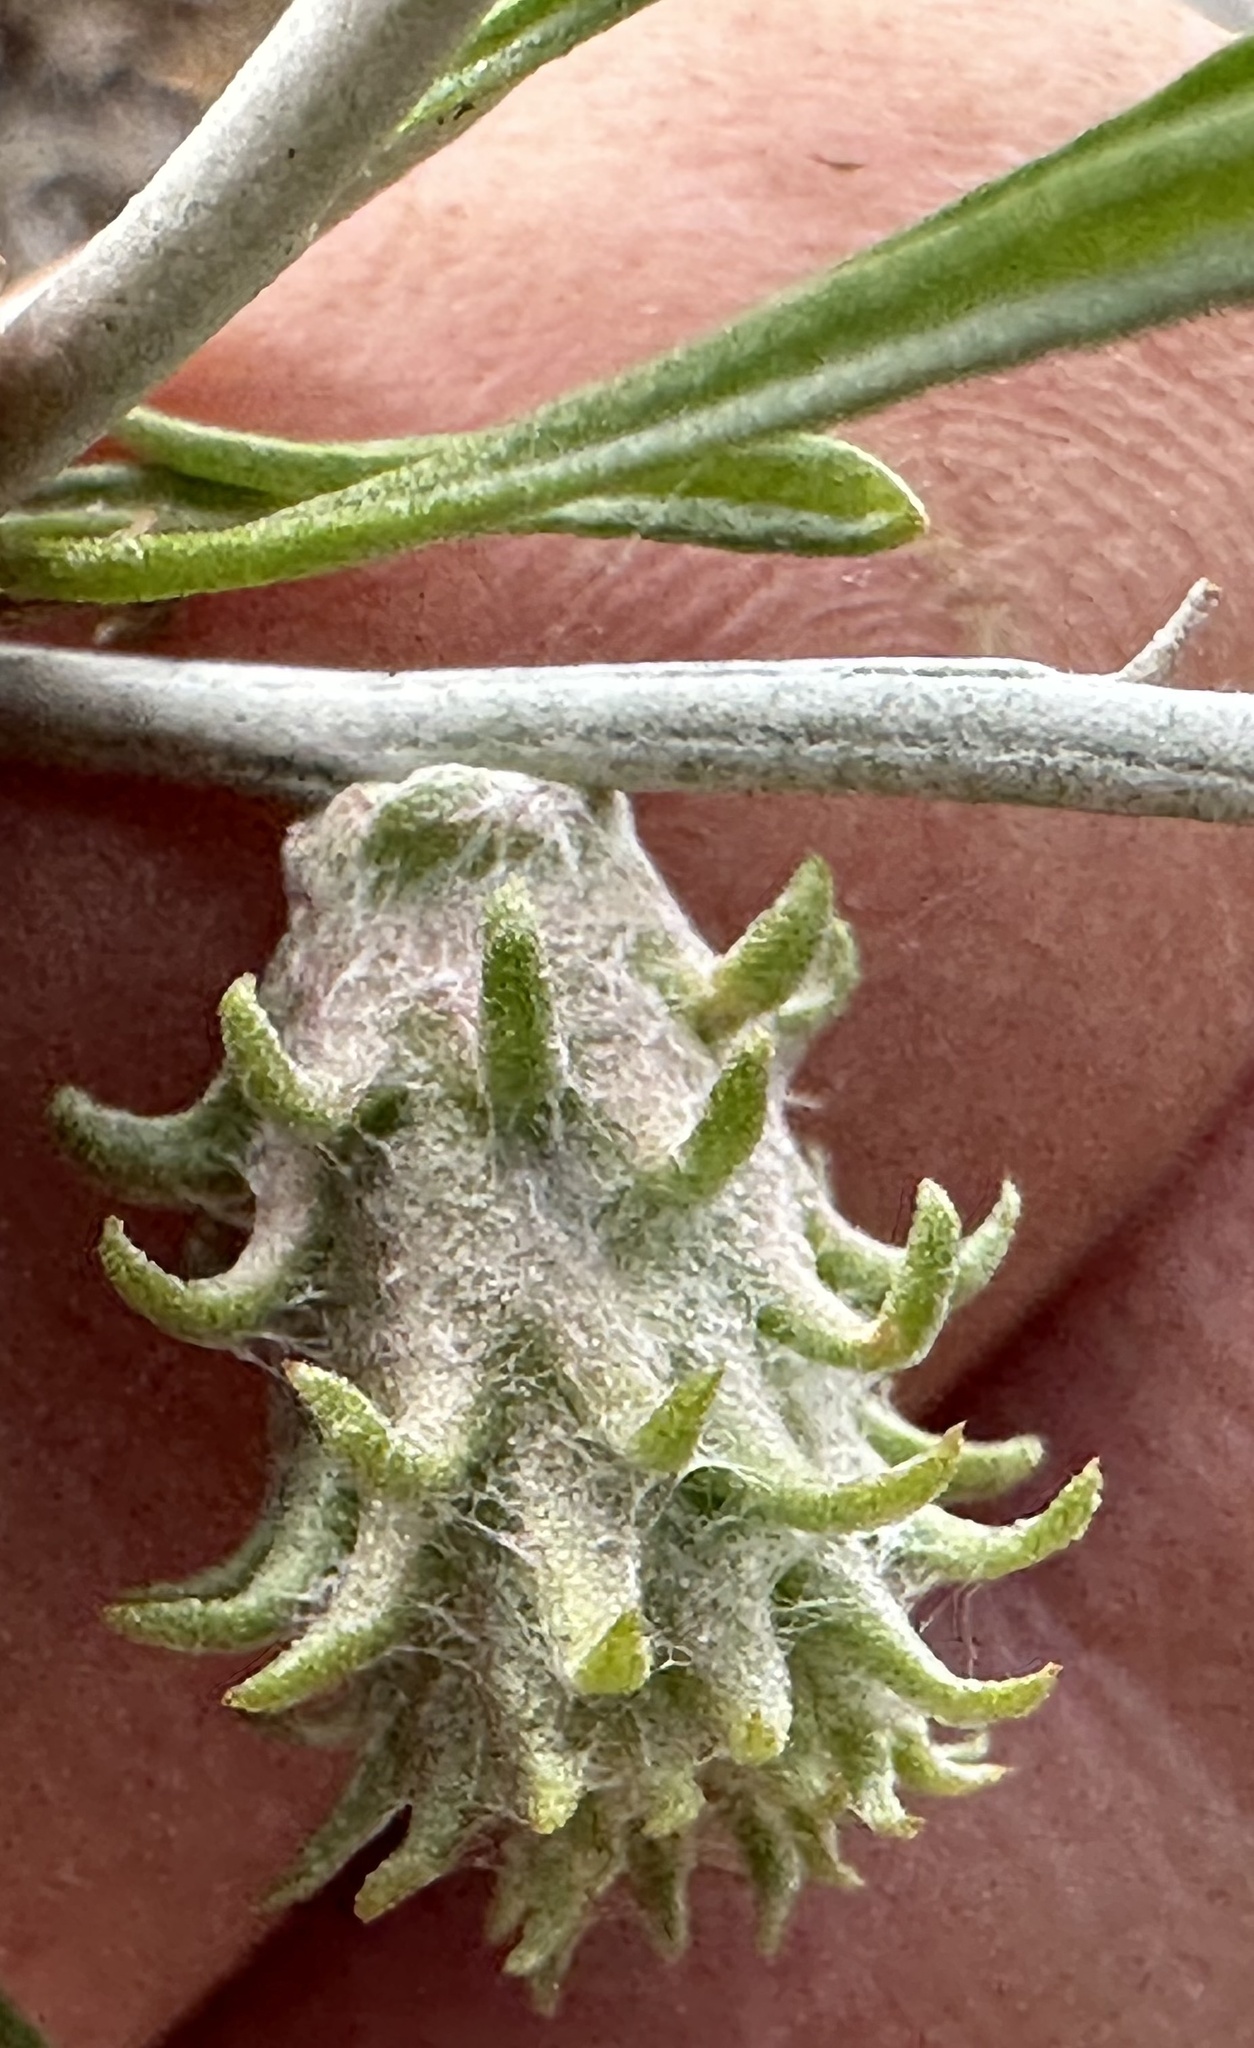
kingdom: Animalia
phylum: Arthropoda
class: Insecta
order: Diptera
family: Cecidomyiidae
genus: Rhopalomyia
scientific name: Rhopalomyia utahensis
